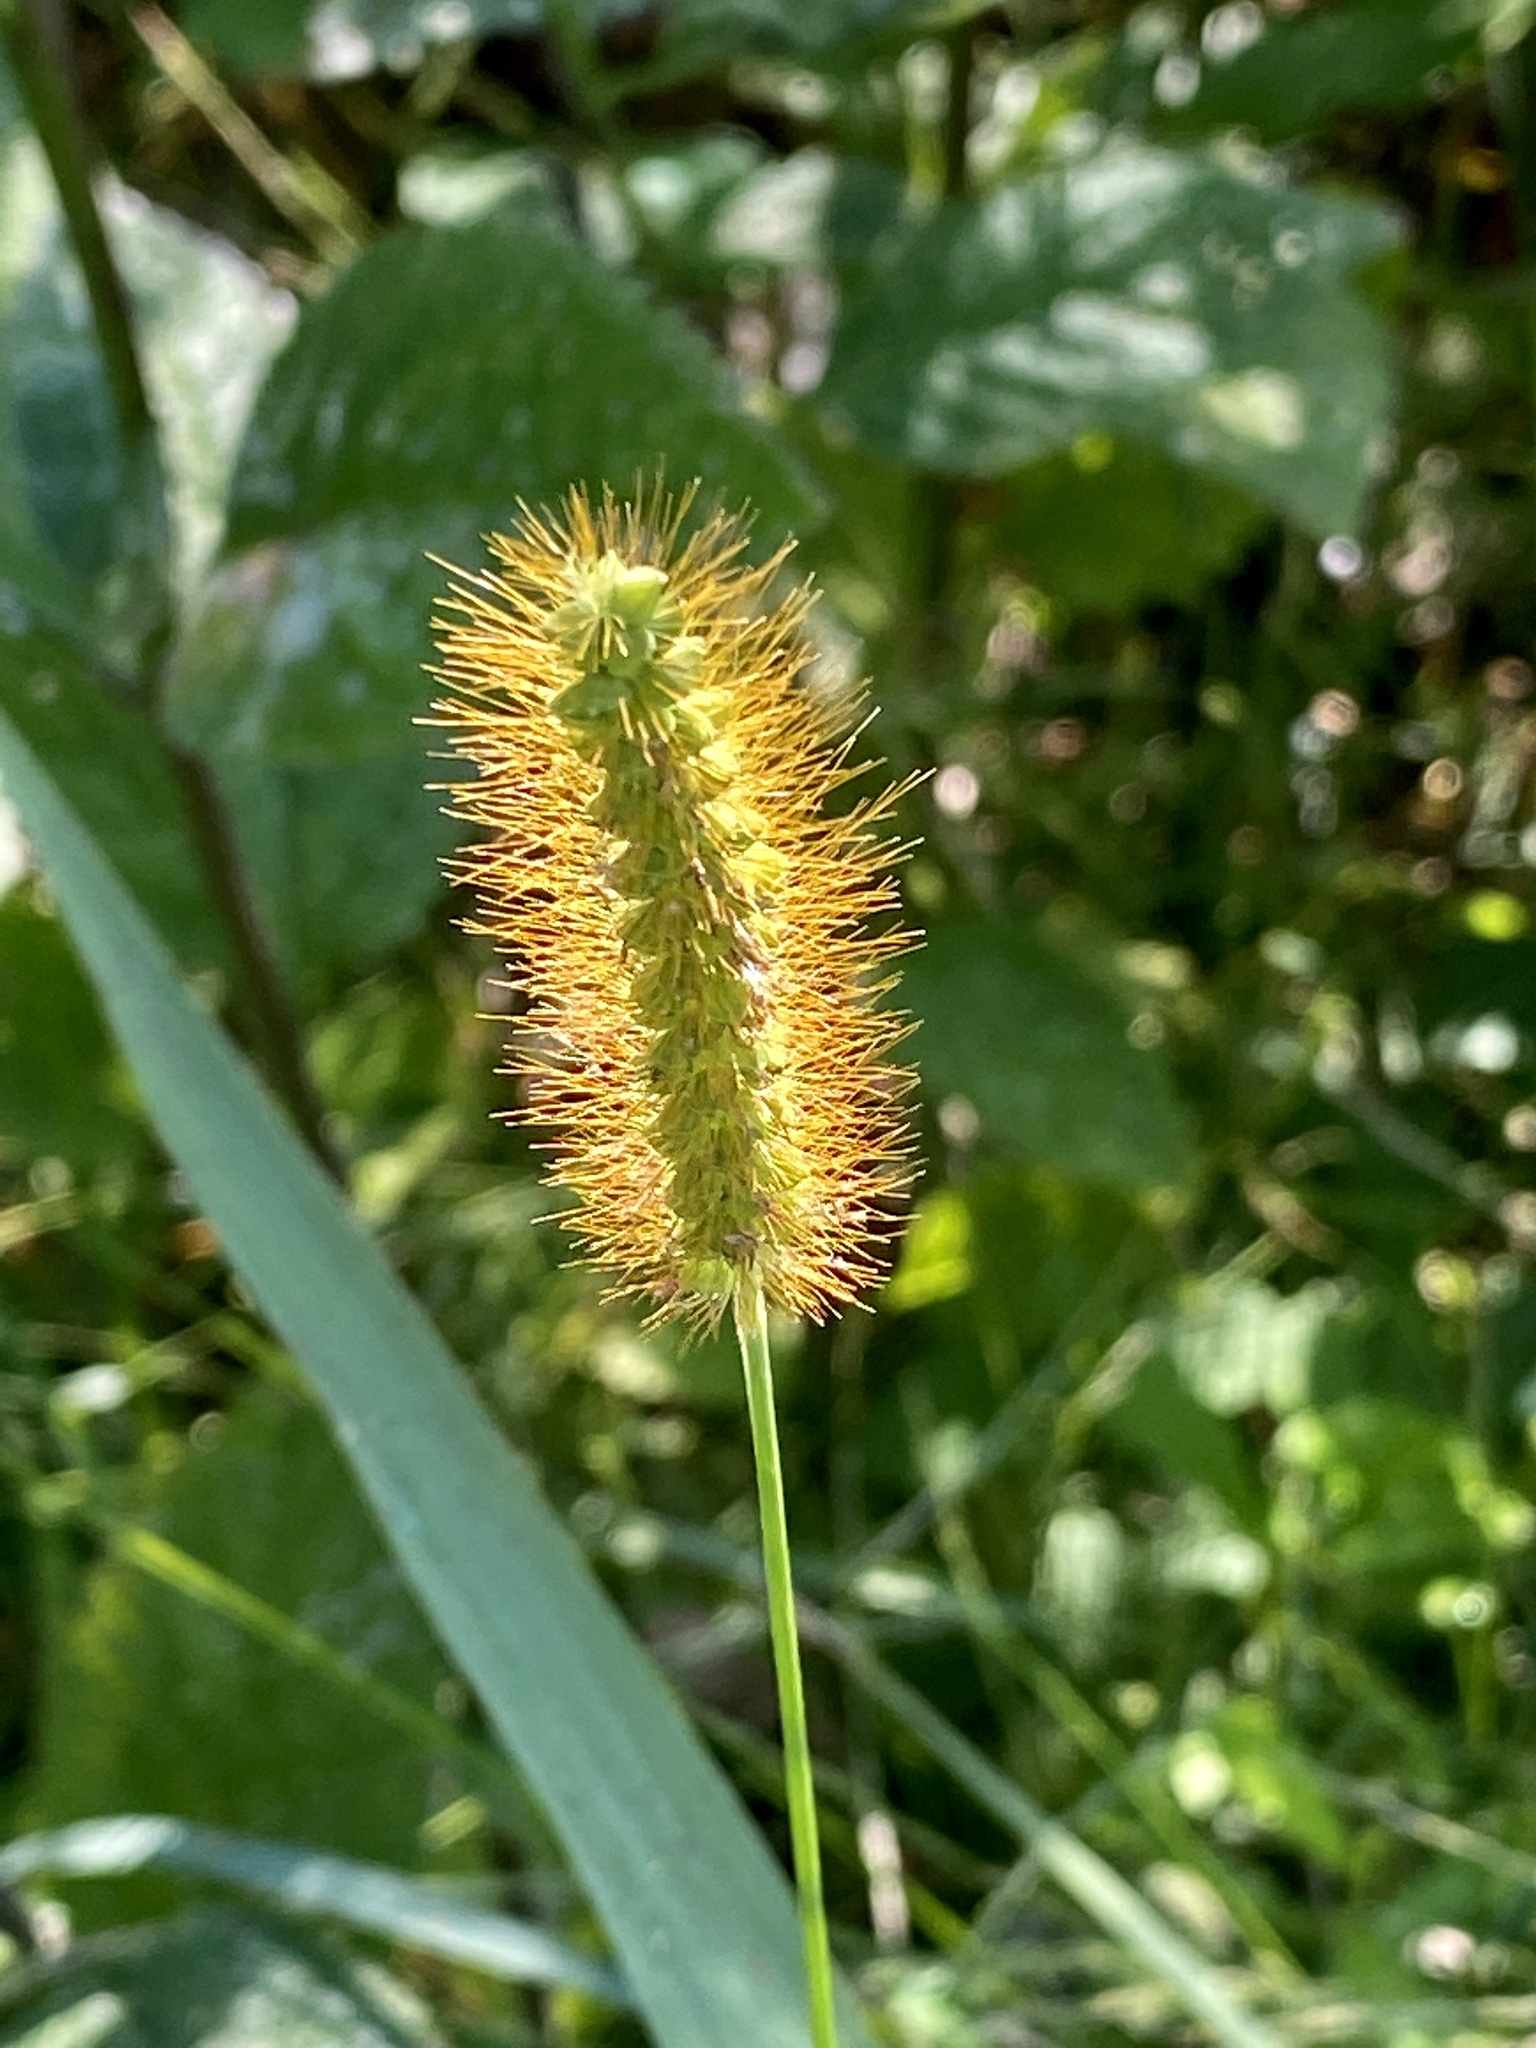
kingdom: Plantae
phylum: Tracheophyta
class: Liliopsida
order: Poales
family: Poaceae
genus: Setaria
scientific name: Setaria pumila
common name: Yellow bristle-grass
